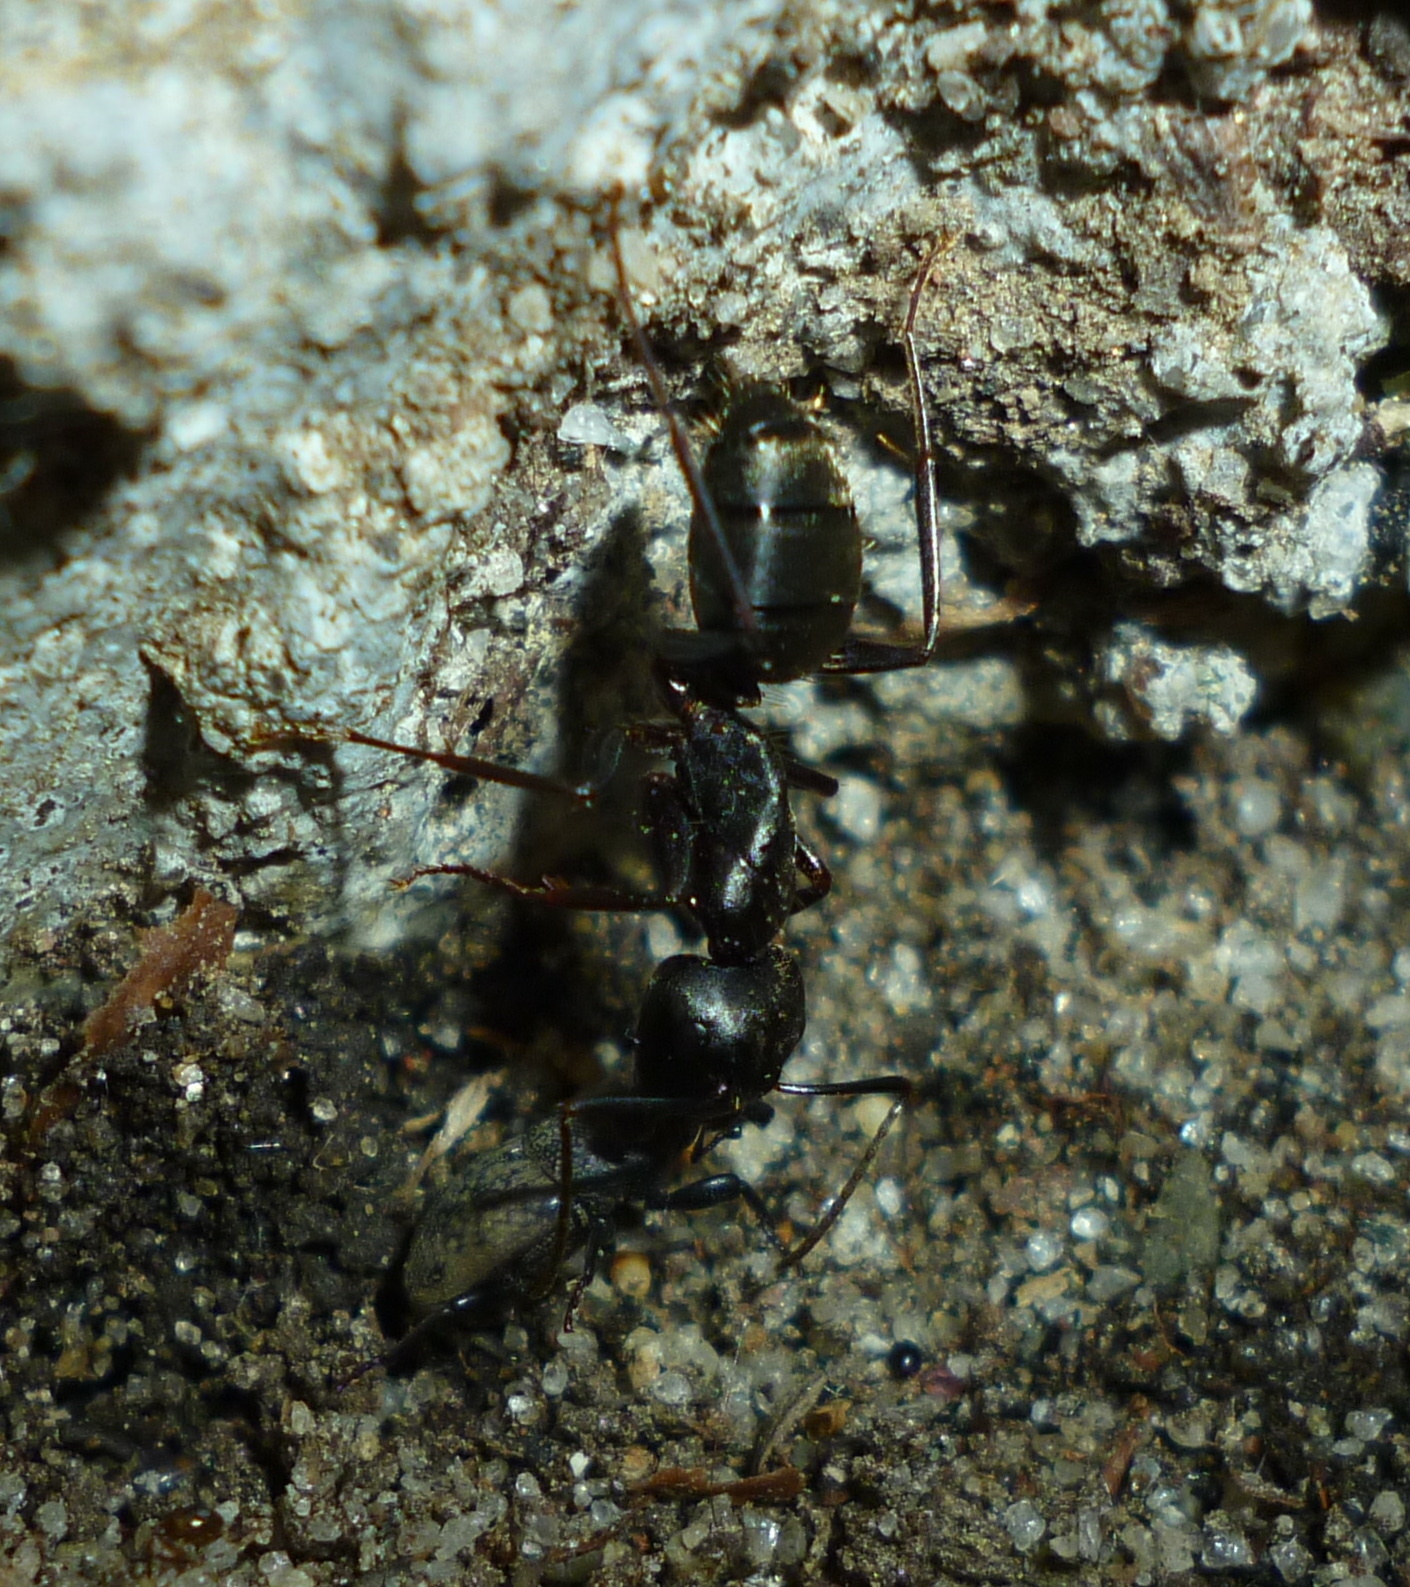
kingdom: Animalia
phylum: Arthropoda
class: Insecta
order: Hymenoptera
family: Formicidae
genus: Camponotus
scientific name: Camponotus pennsylvanicus
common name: Black carpenter ant
